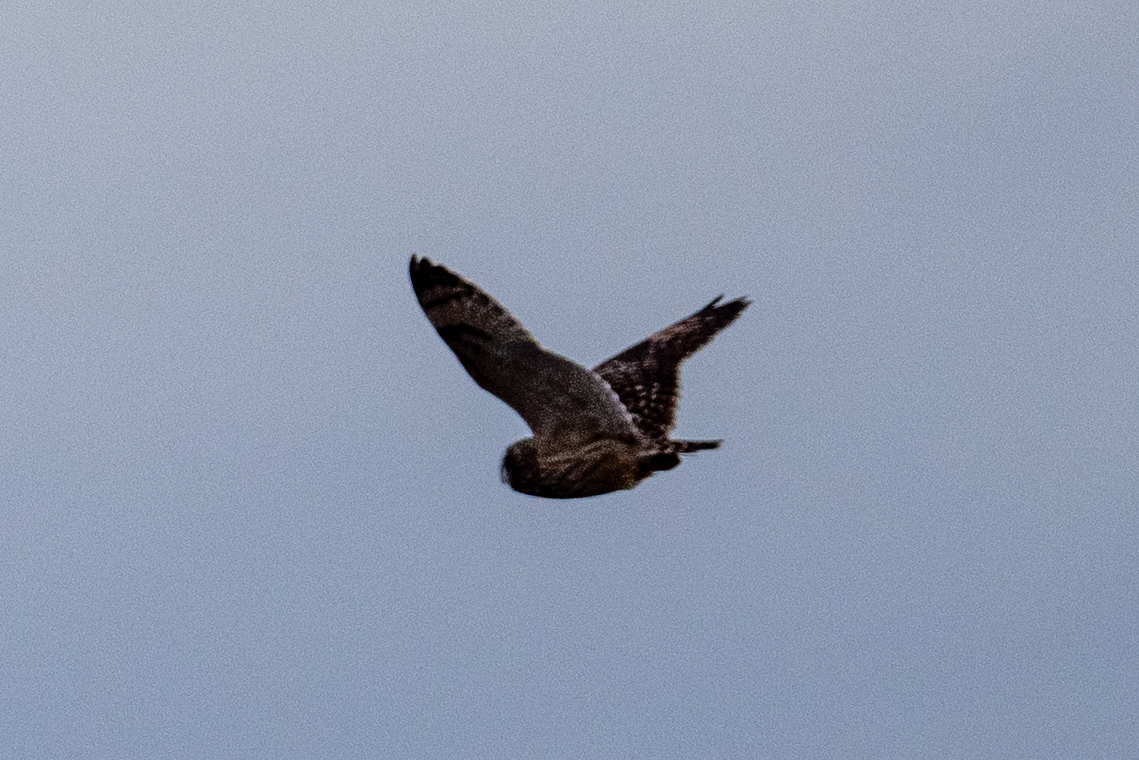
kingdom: Animalia
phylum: Chordata
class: Aves
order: Strigiformes
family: Strigidae
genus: Asio
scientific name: Asio flammeus
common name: Short-eared owl
